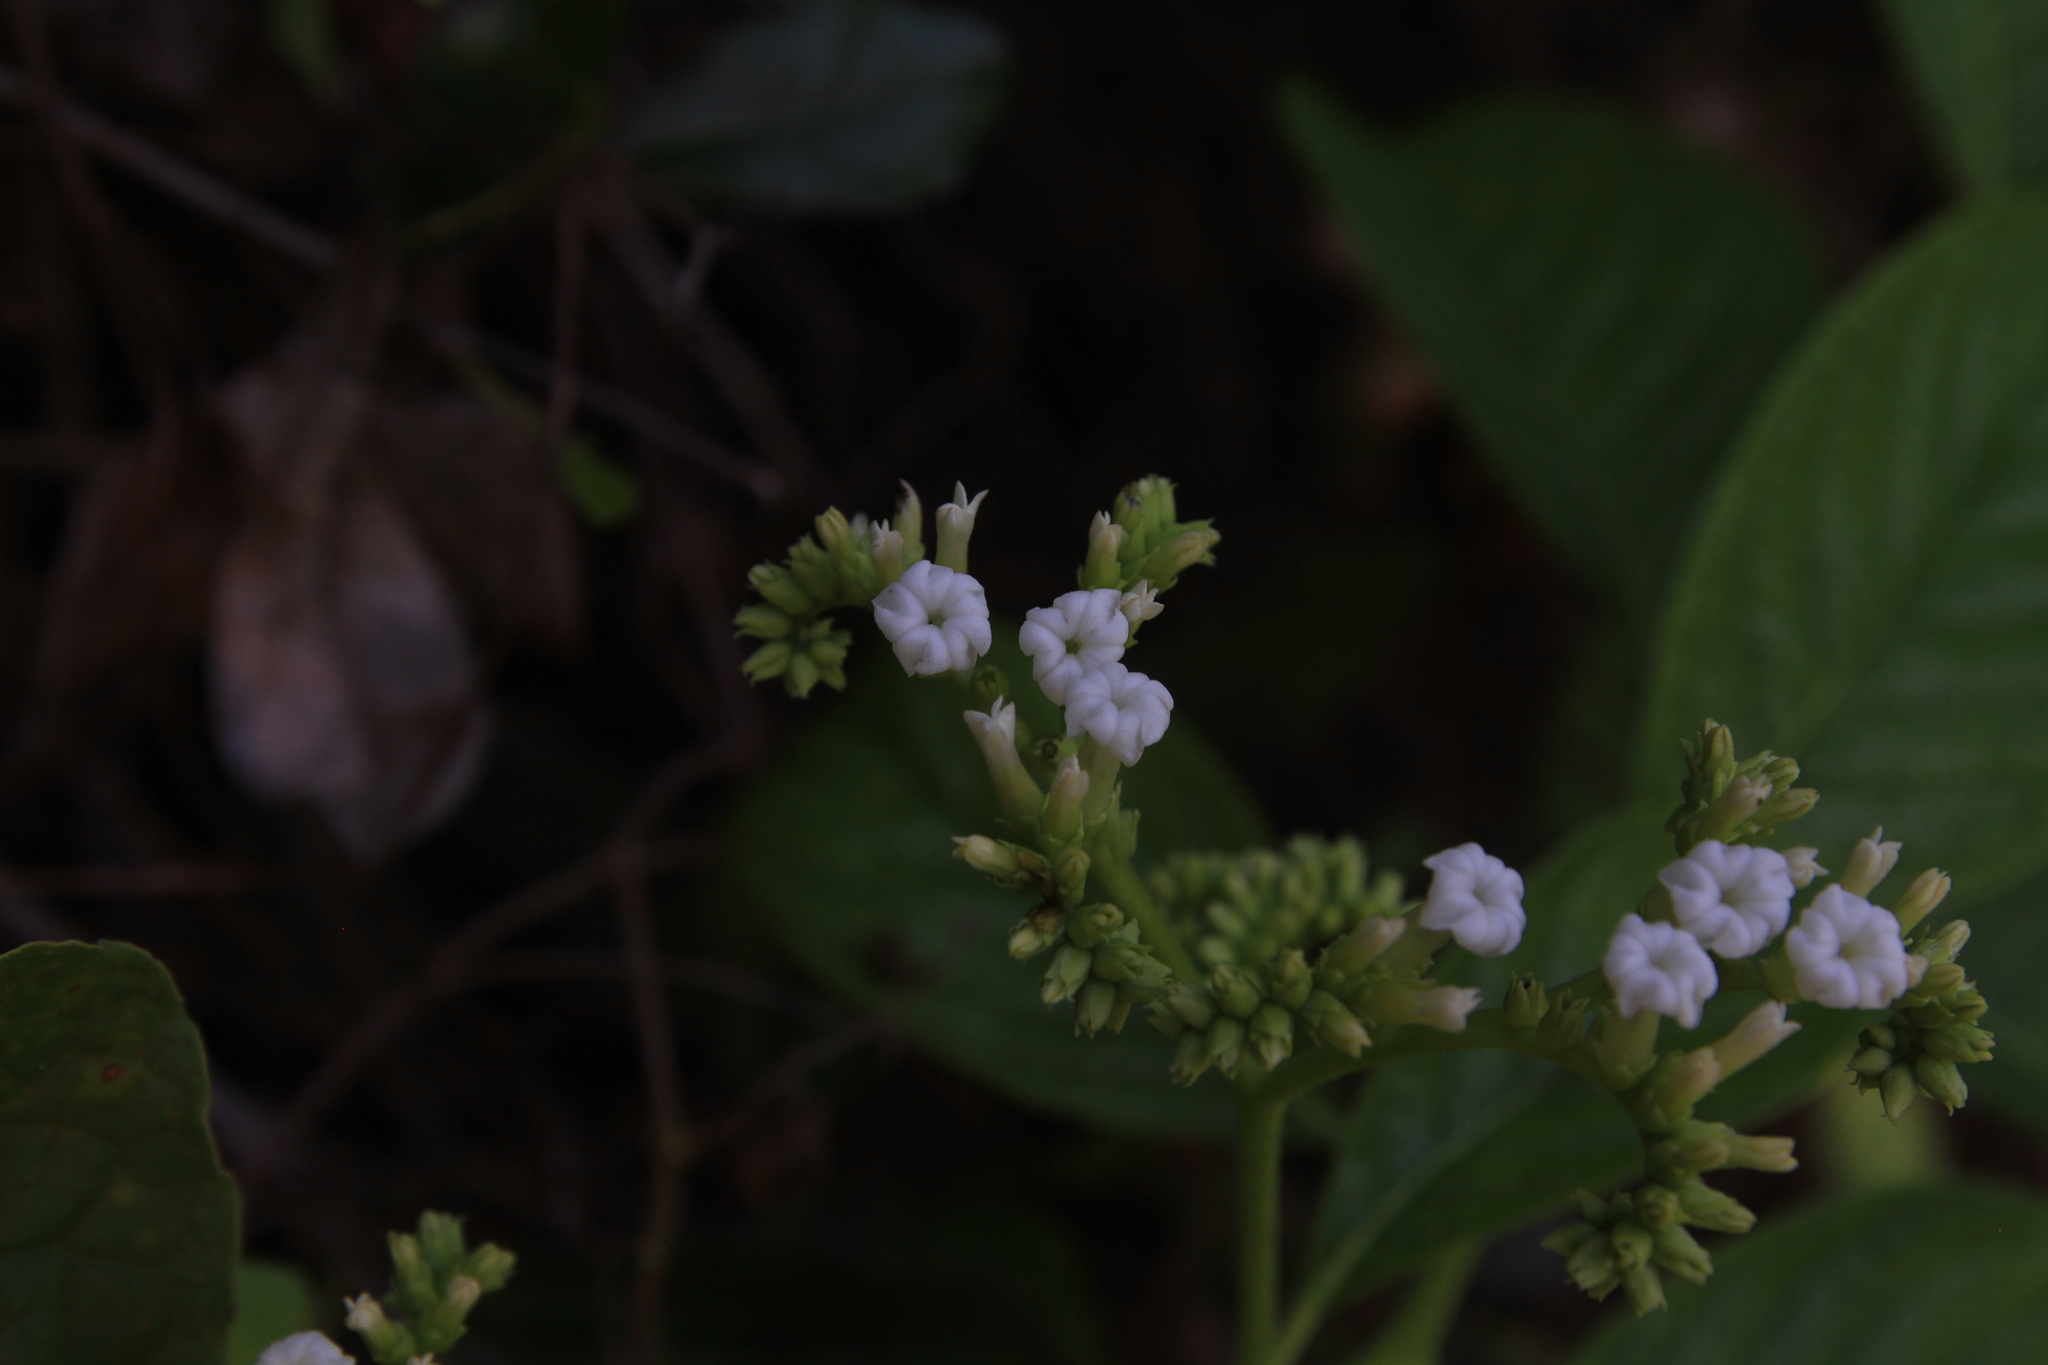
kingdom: Plantae
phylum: Tracheophyta
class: Magnoliopsida
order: Boraginales
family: Heliotropiaceae
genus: Heliotropium
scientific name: Heliotropium verdcourtii
